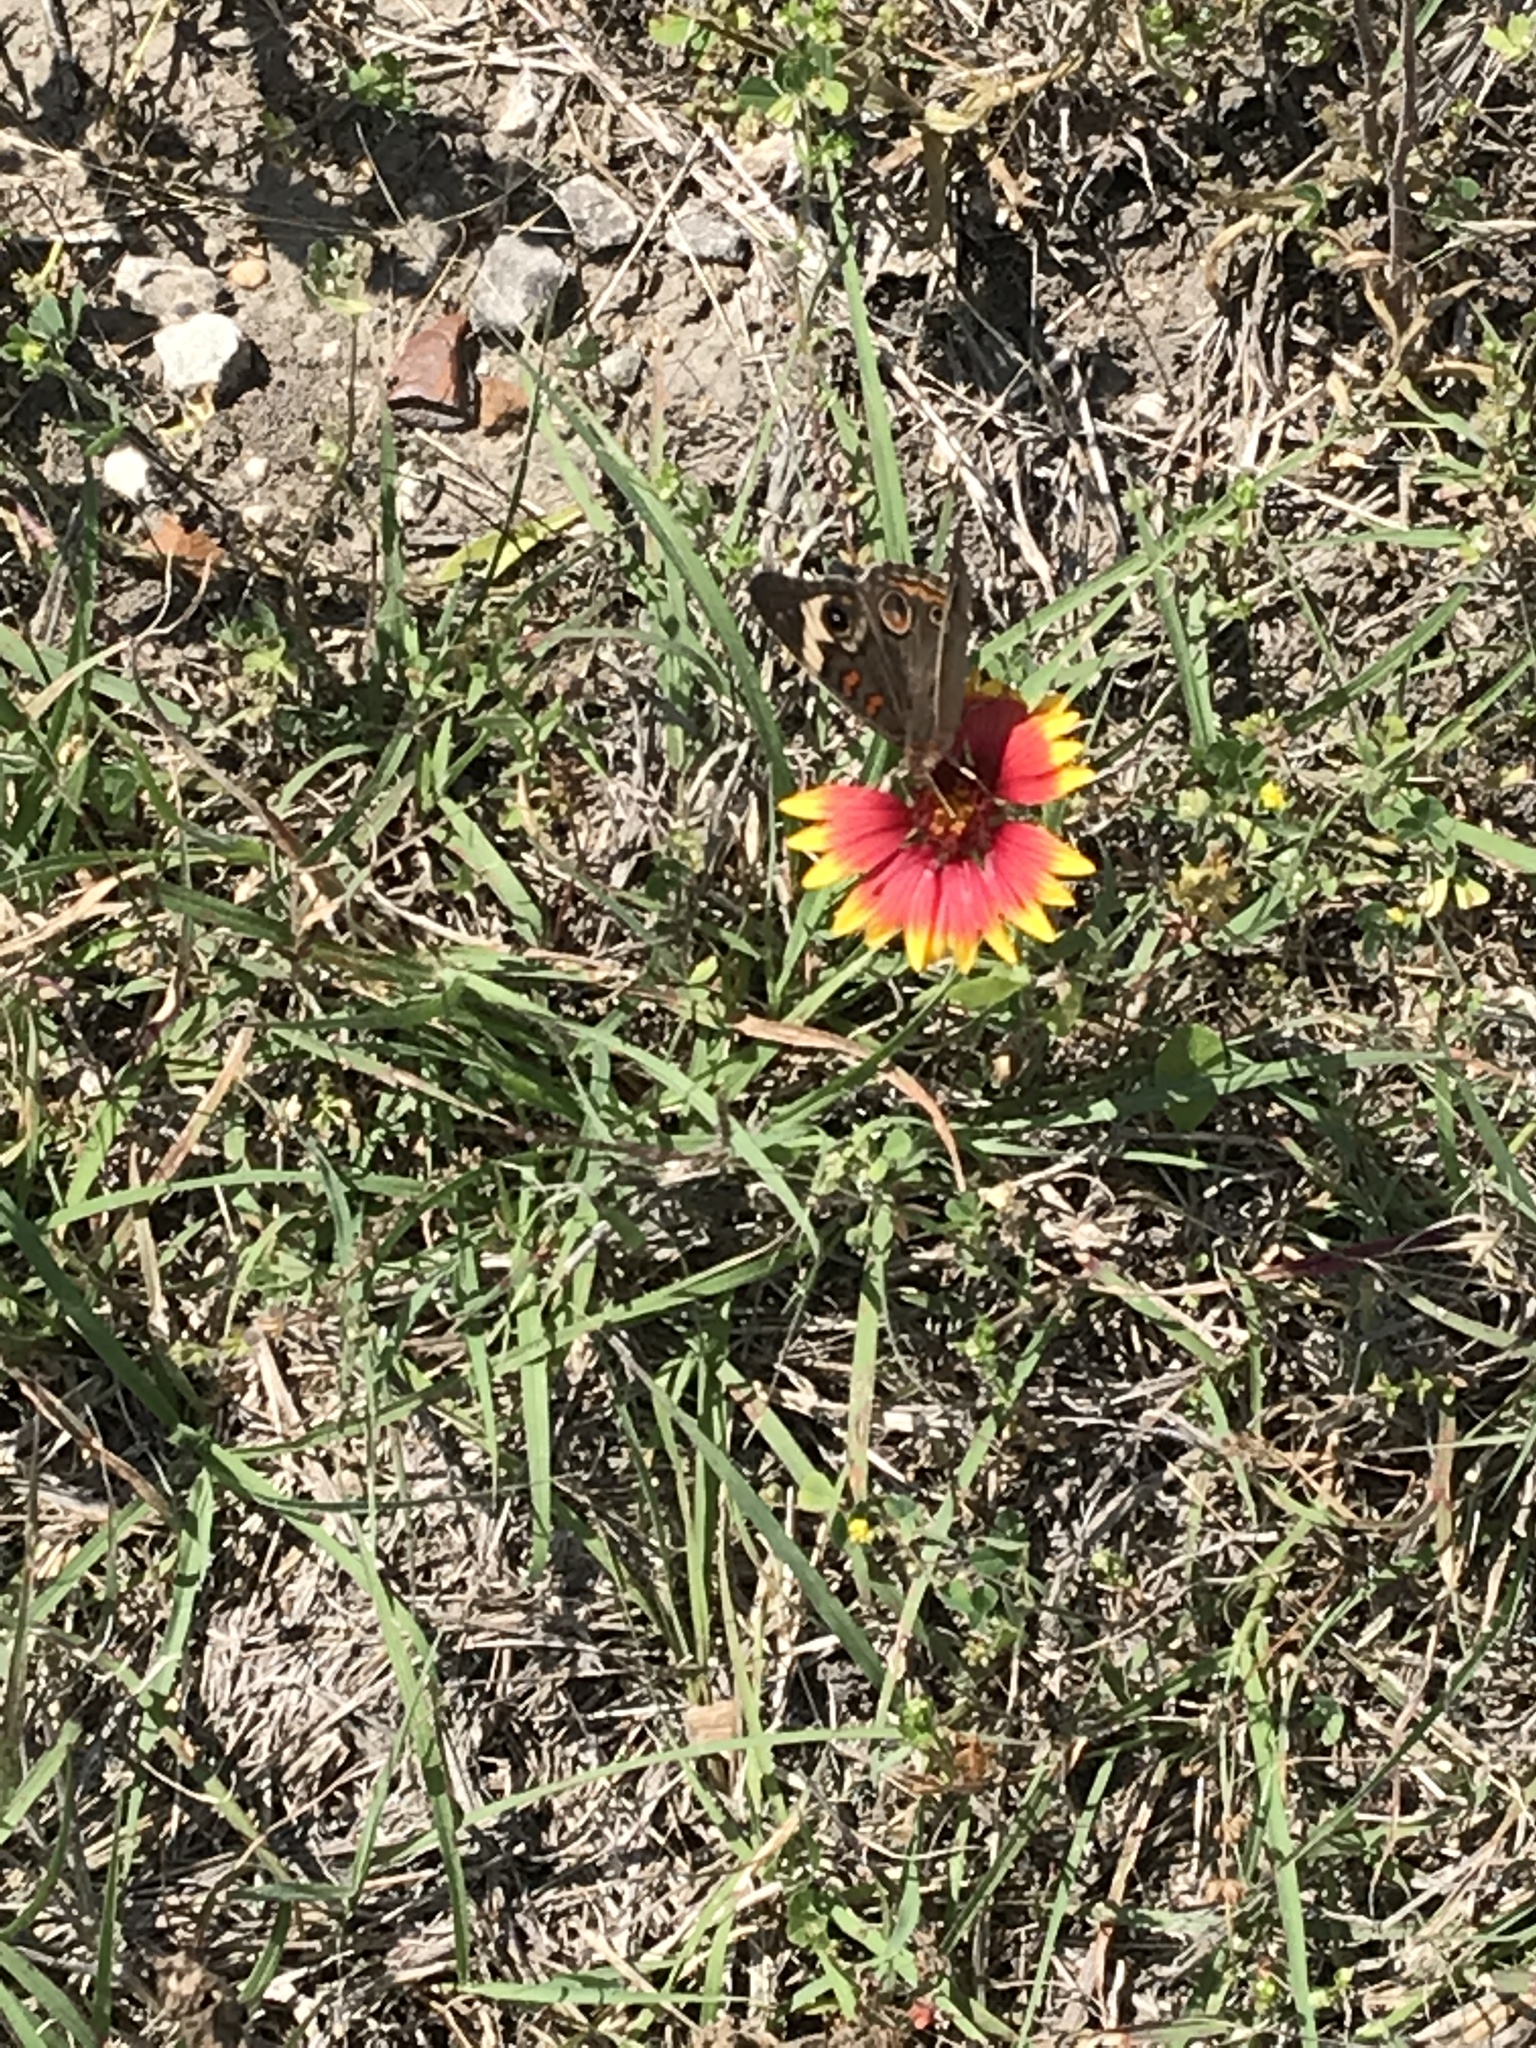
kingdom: Animalia
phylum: Arthropoda
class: Insecta
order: Lepidoptera
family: Nymphalidae
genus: Junonia
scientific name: Junonia coenia
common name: Common buckeye
